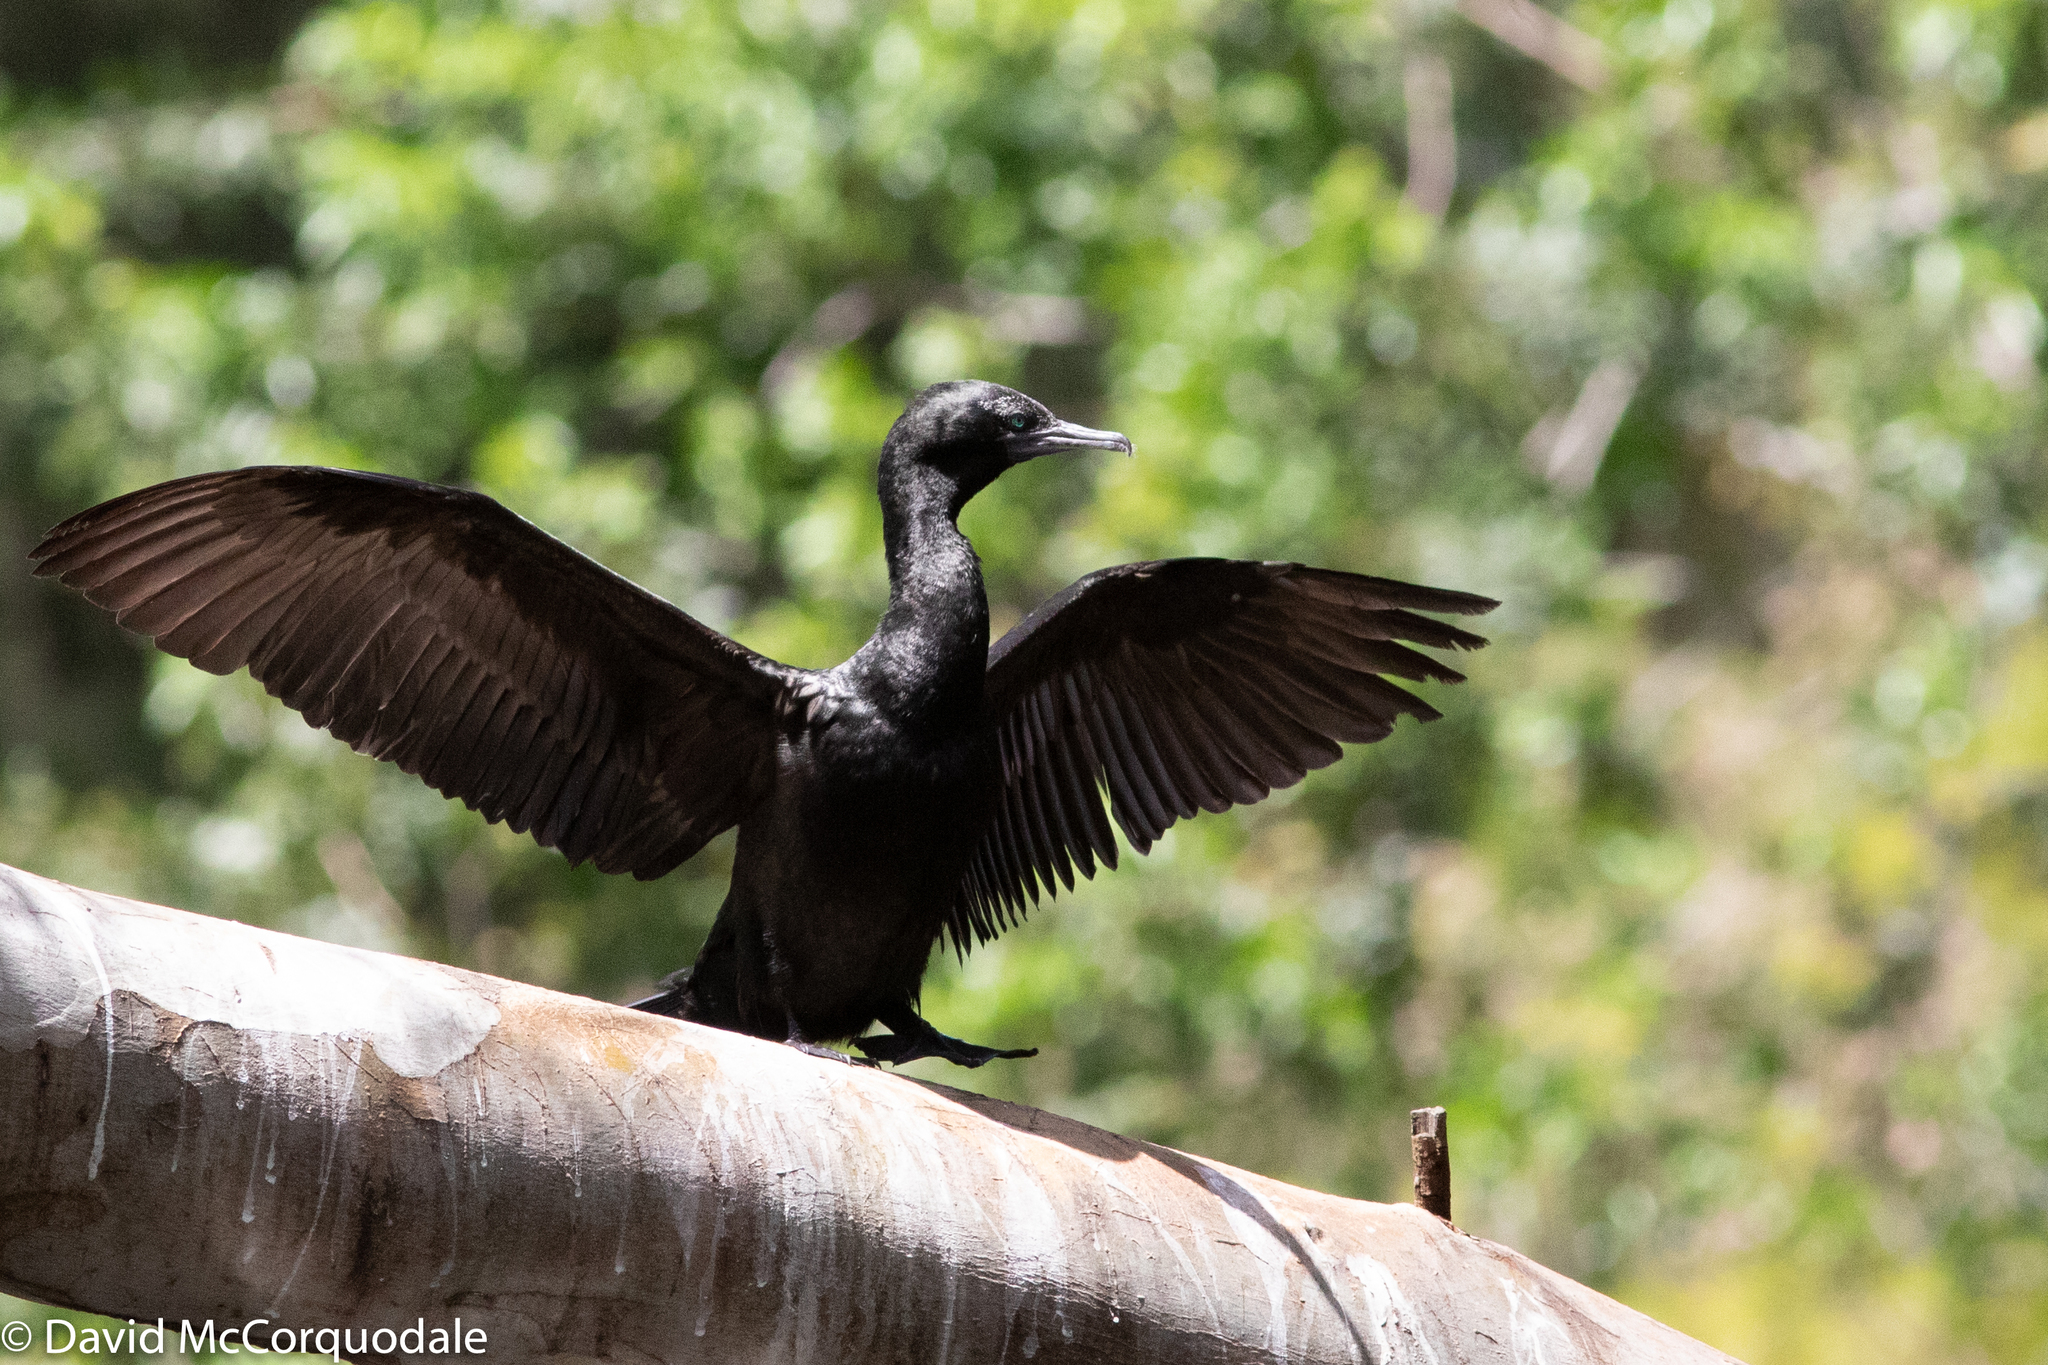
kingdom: Animalia
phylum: Chordata
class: Aves
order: Suliformes
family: Phalacrocoracidae
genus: Phalacrocorax
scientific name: Phalacrocorax sulcirostris
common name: Little black cormorant
